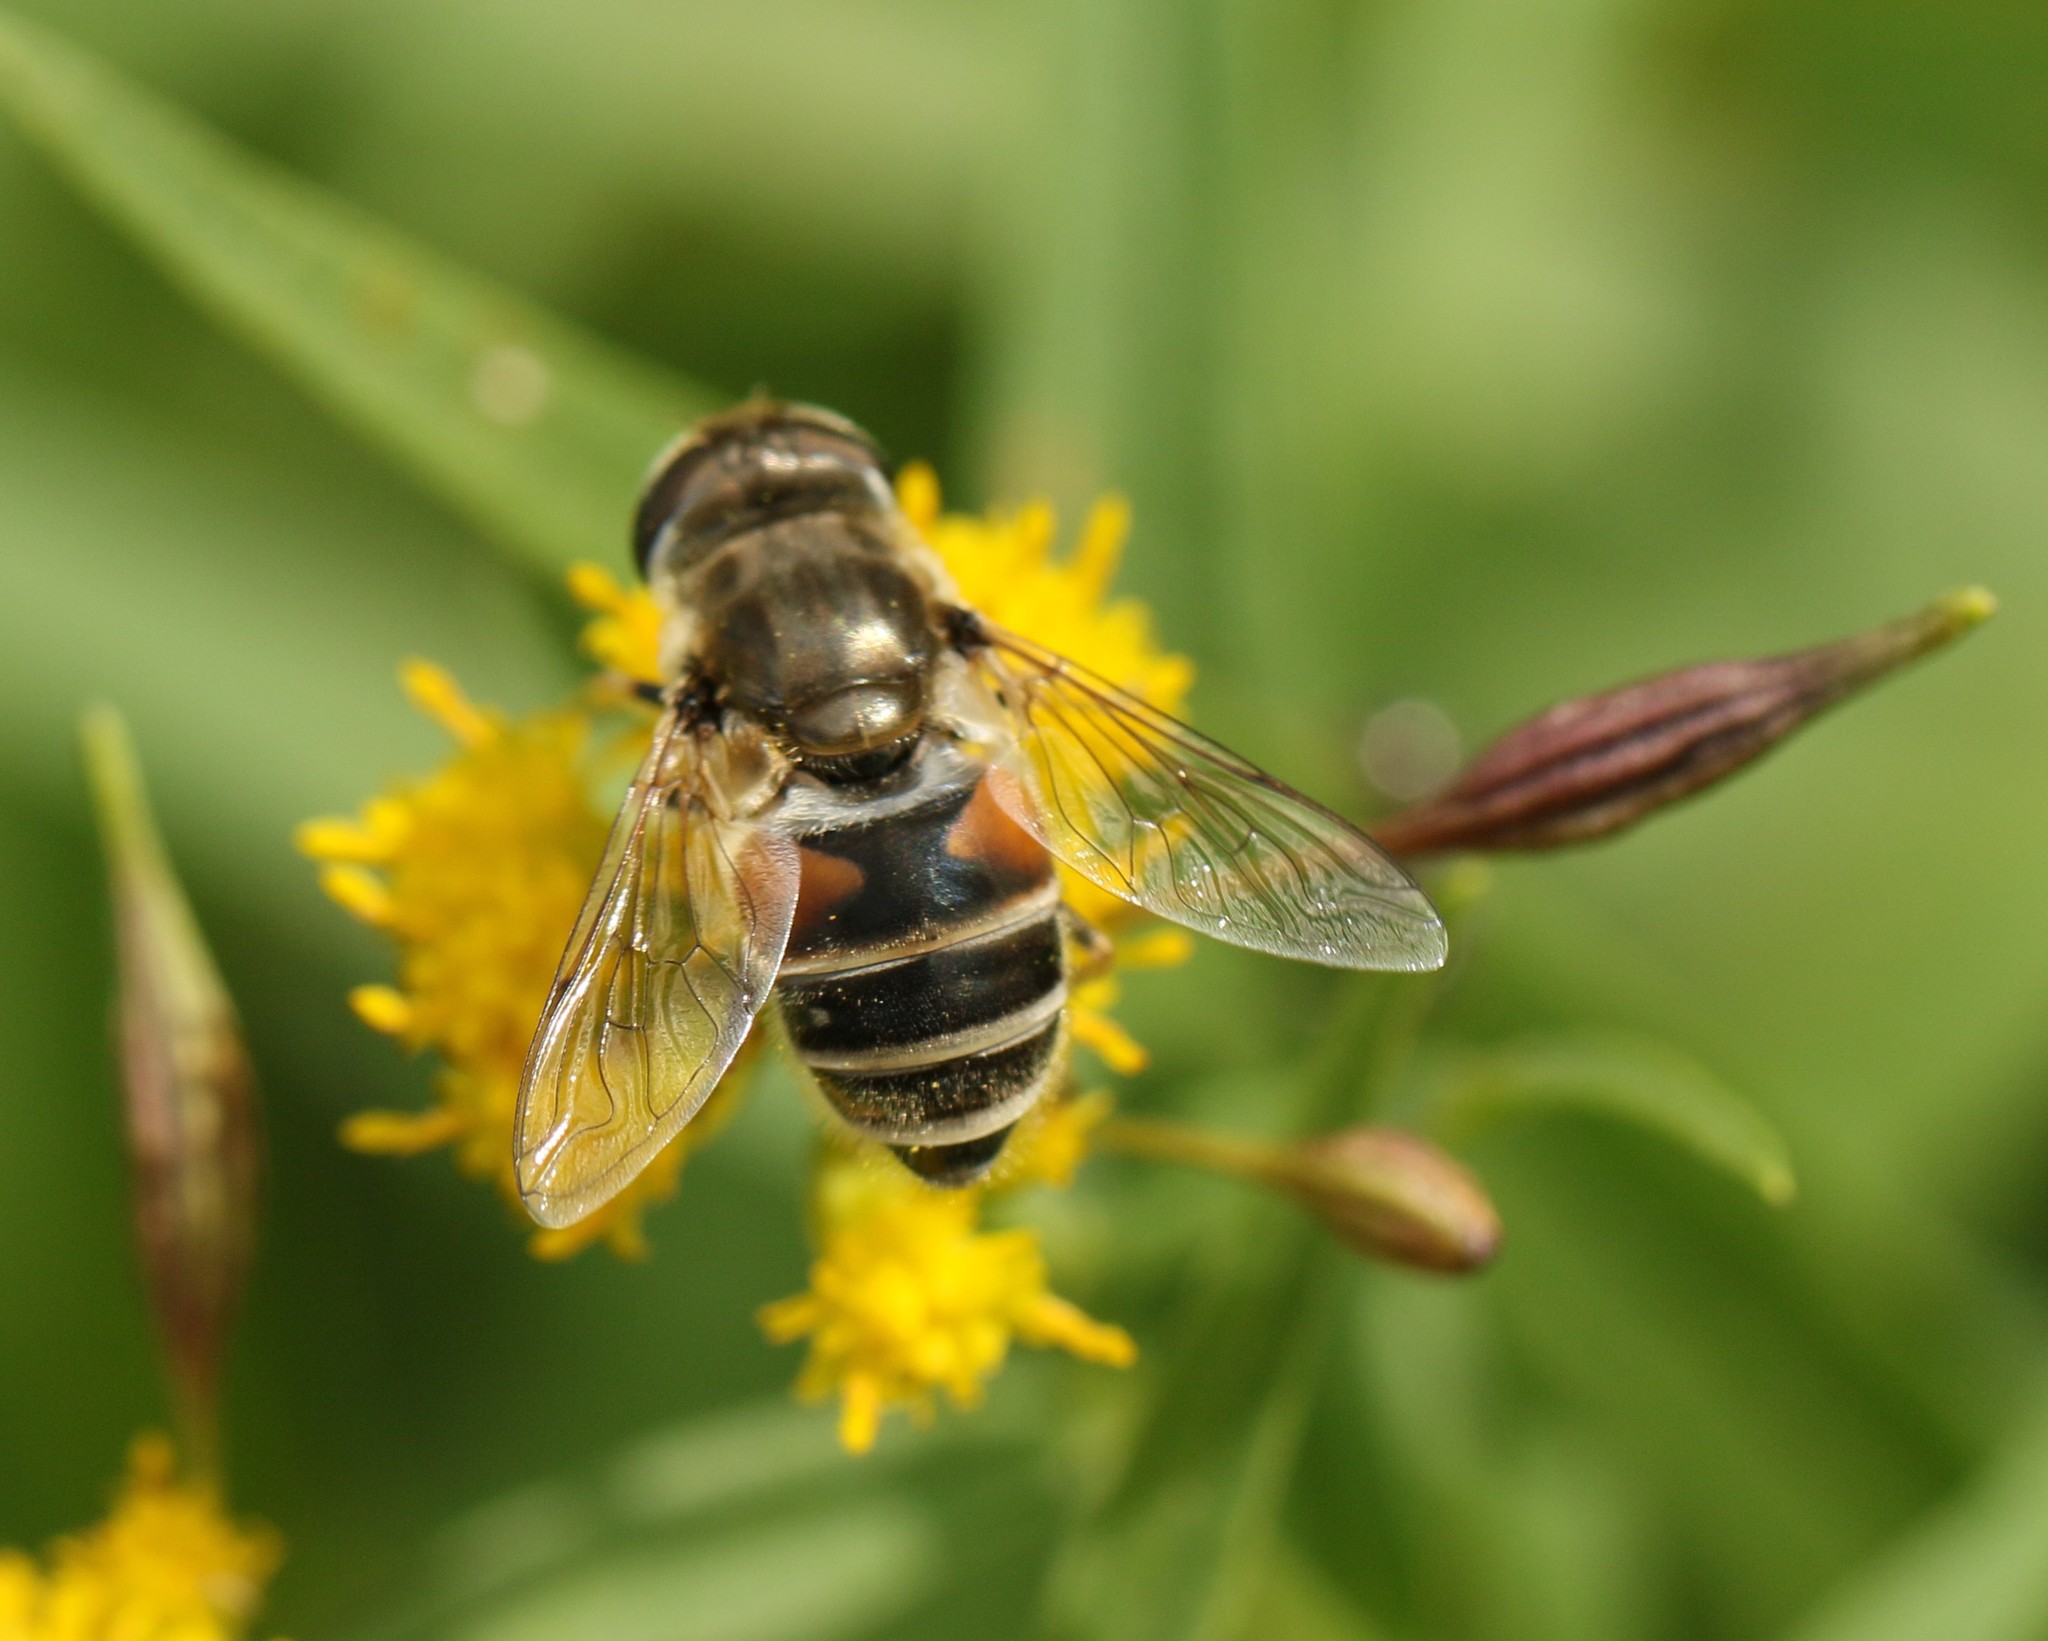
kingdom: Animalia
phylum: Arthropoda
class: Insecta
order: Diptera
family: Syrphidae
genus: Eristalis
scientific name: Eristalis arbustorum
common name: Hover fly
